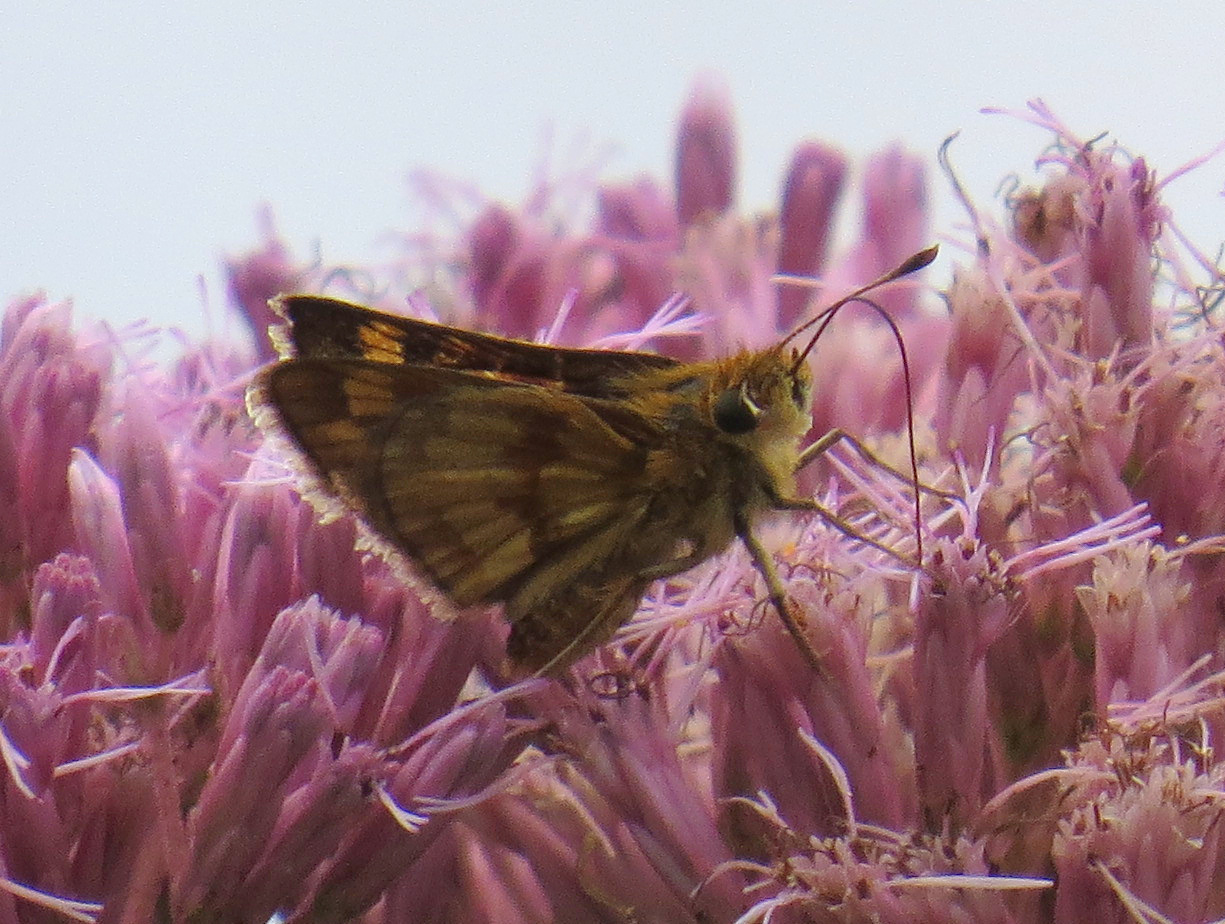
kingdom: Animalia
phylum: Arthropoda
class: Insecta
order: Lepidoptera
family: Hesperiidae
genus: Polites
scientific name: Polites coras
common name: Peck's skipper
